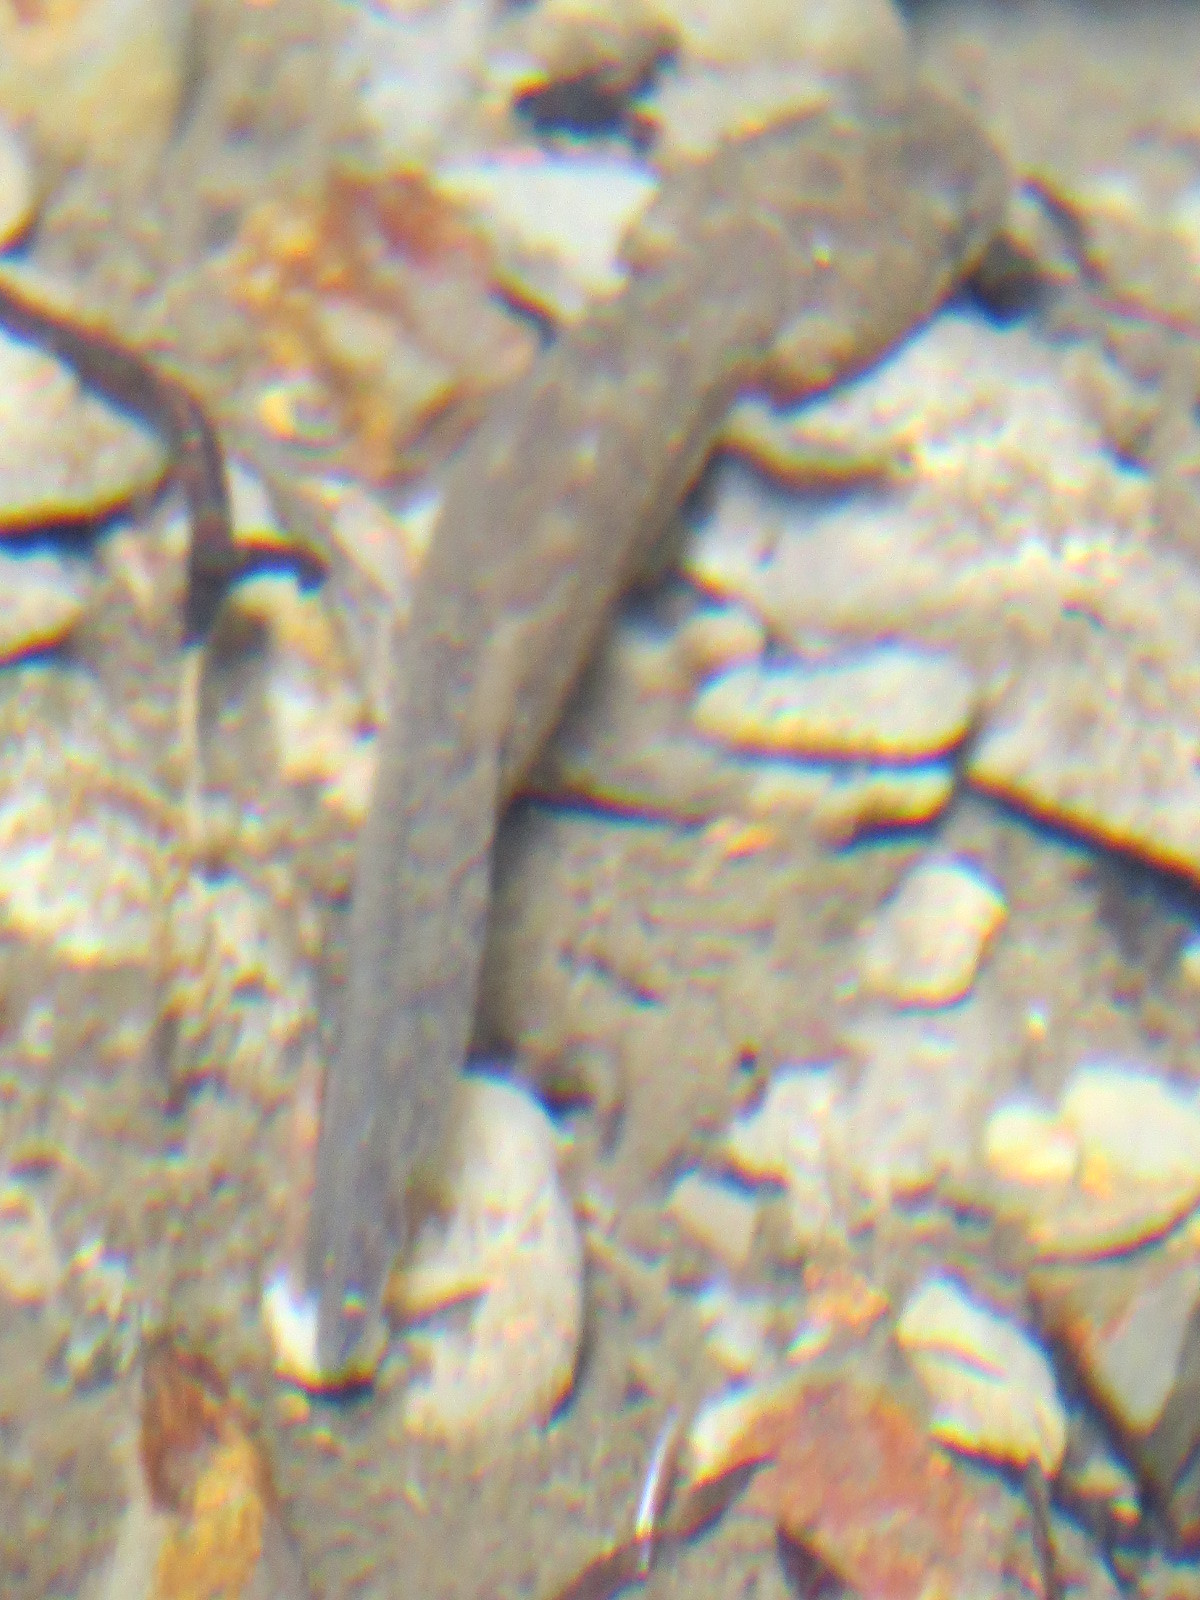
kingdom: Animalia
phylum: Chordata
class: Amphibia
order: Caudata
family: Ambystomatidae
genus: Dicamptodon
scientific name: Dicamptodon ensatus
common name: California giant salamander
